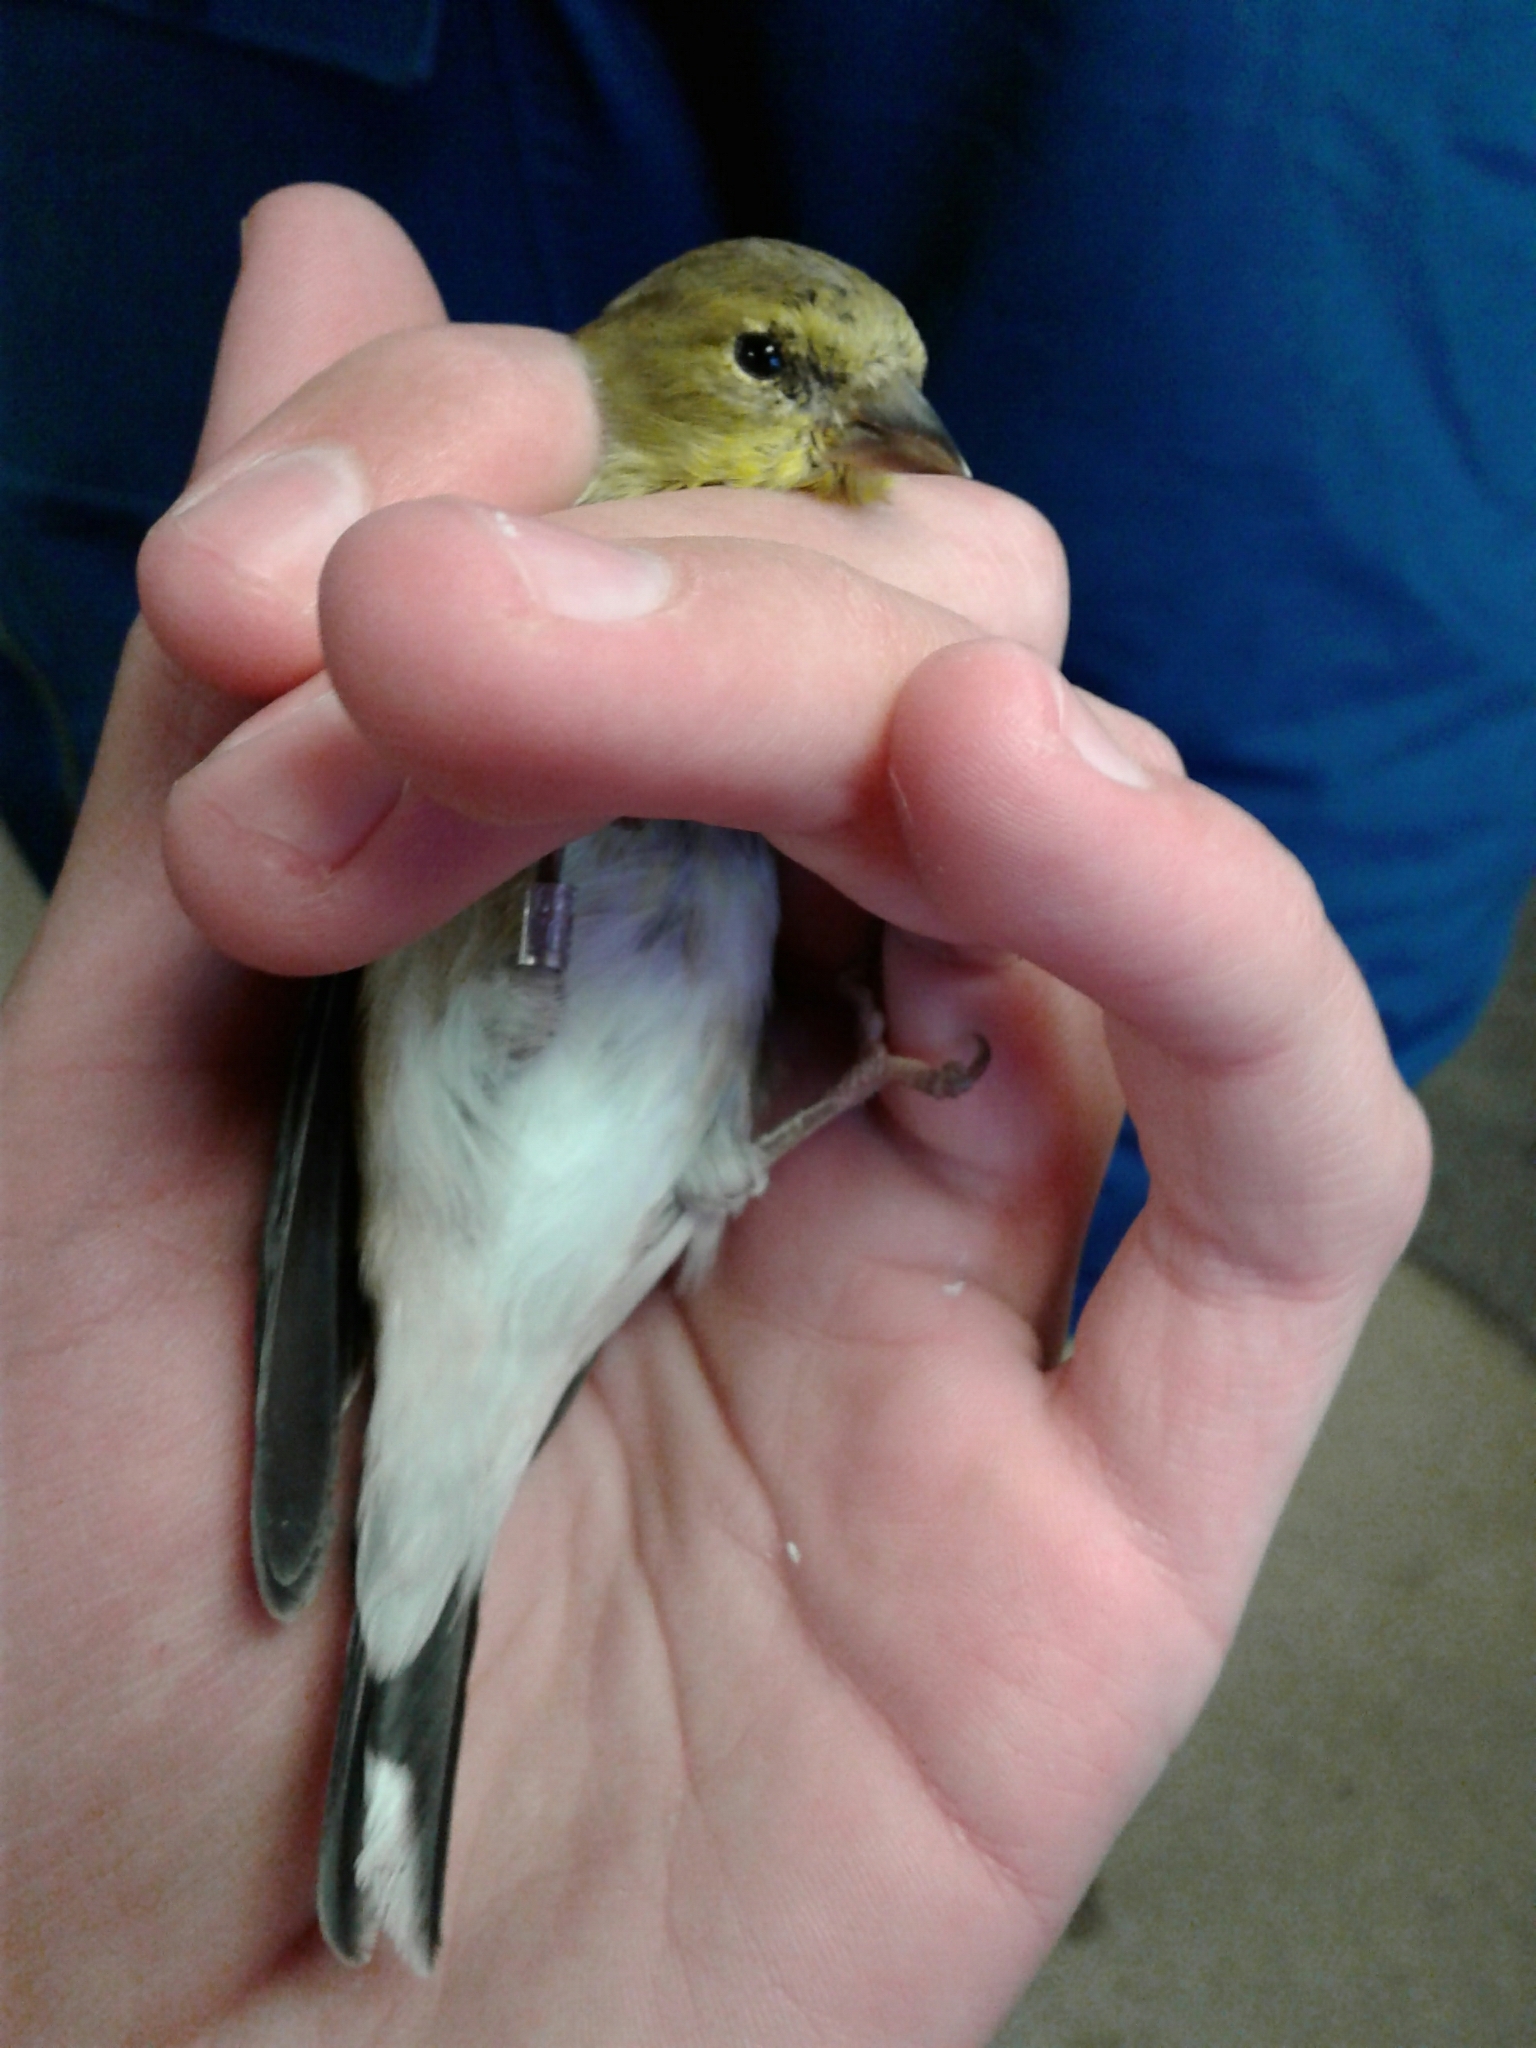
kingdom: Animalia
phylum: Chordata
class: Aves
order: Passeriformes
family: Fringillidae
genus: Spinus
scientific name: Spinus tristis
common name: American goldfinch
